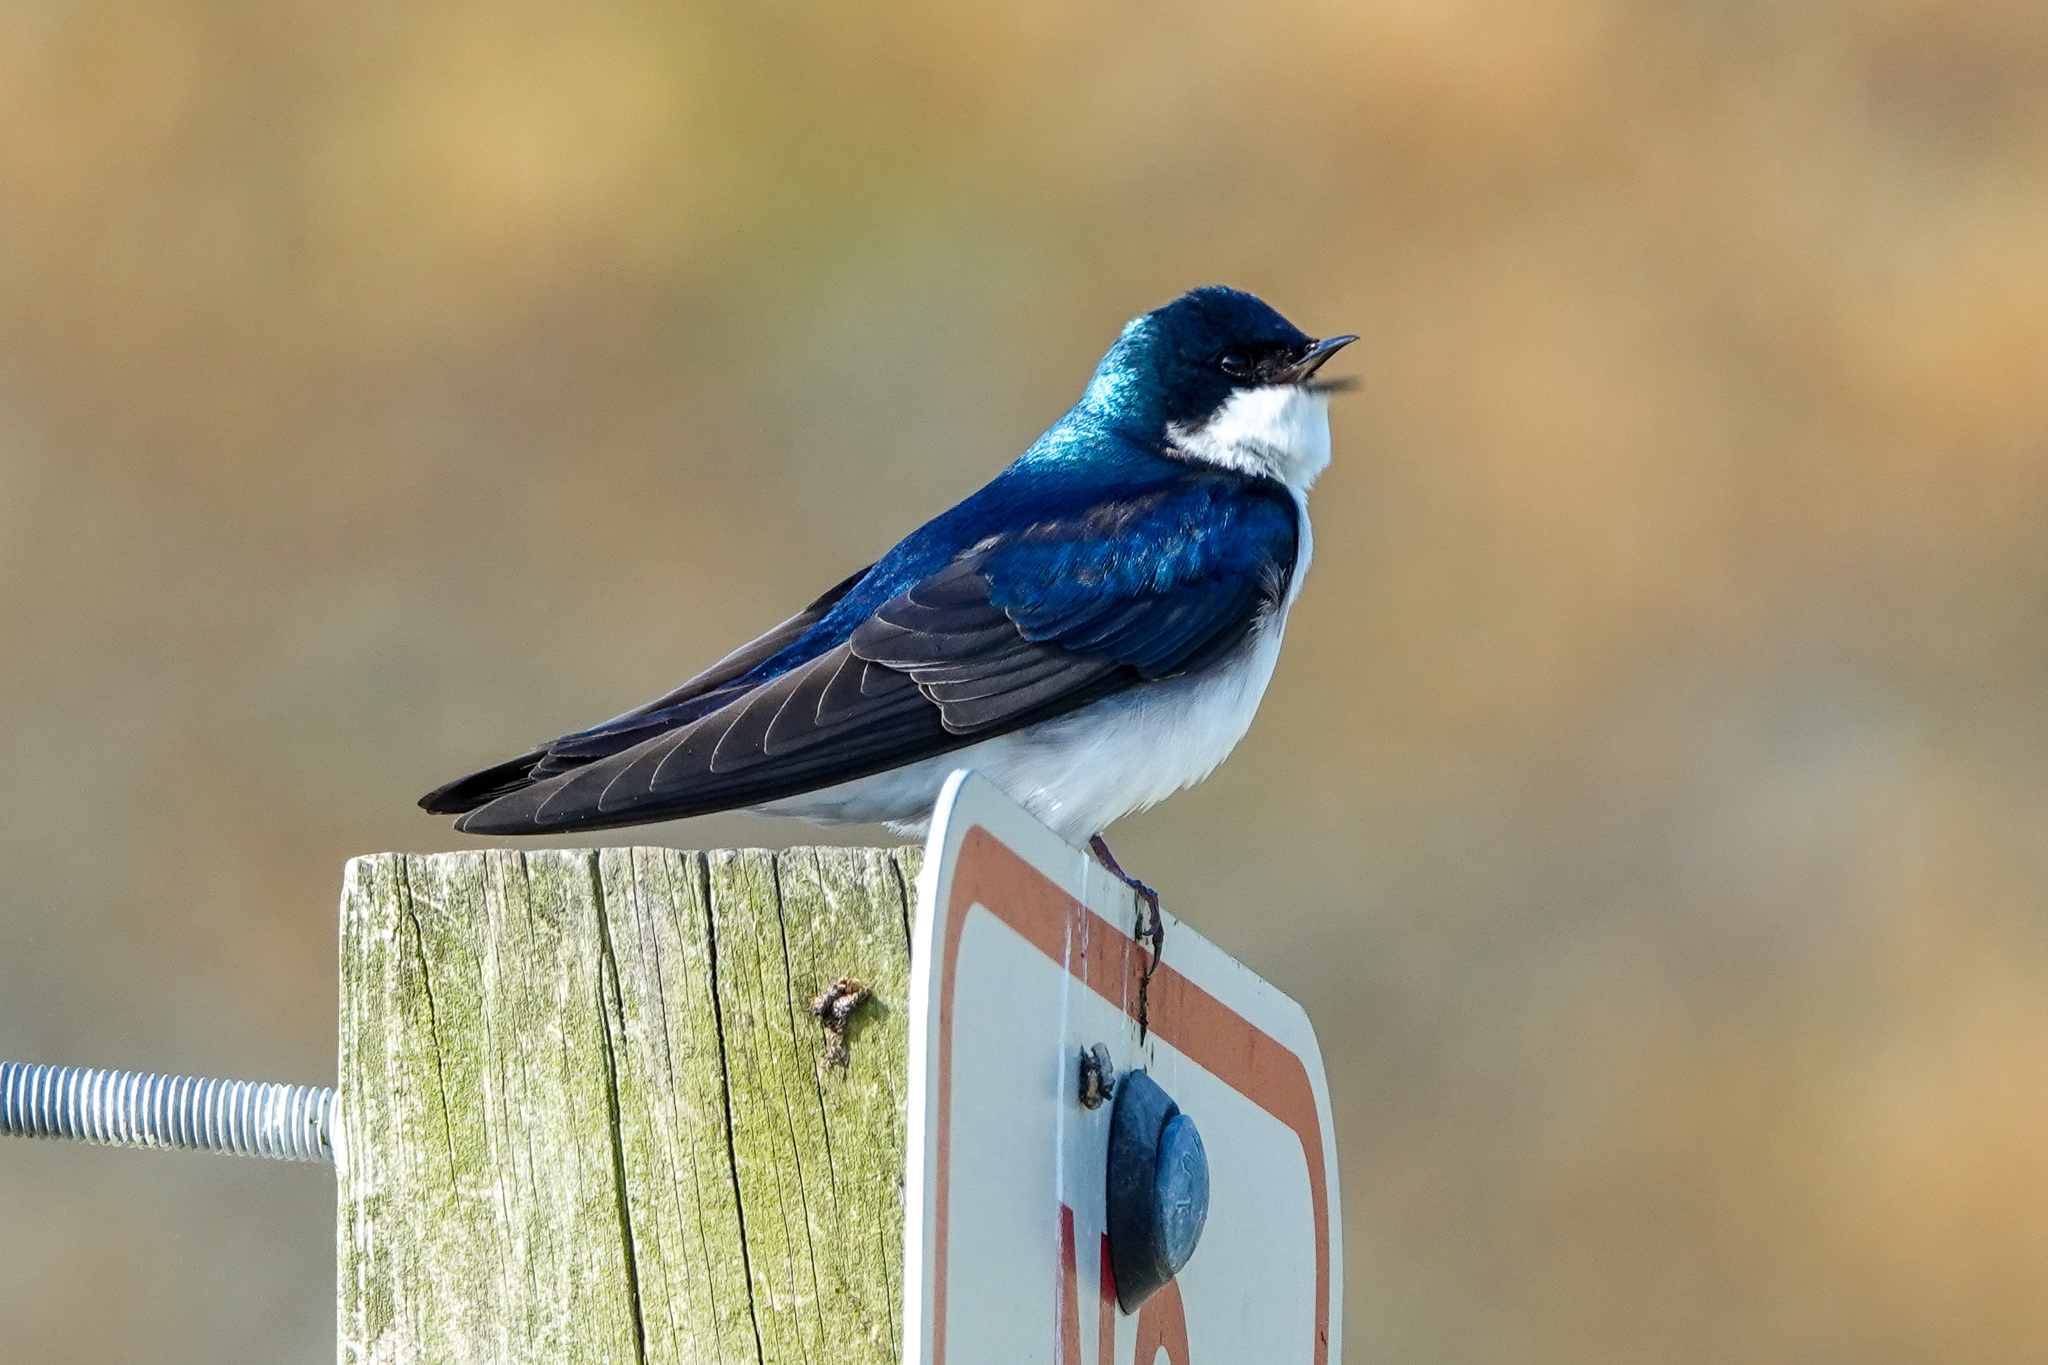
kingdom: Animalia
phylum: Chordata
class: Aves
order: Passeriformes
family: Hirundinidae
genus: Tachycineta
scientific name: Tachycineta bicolor
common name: Tree swallow
